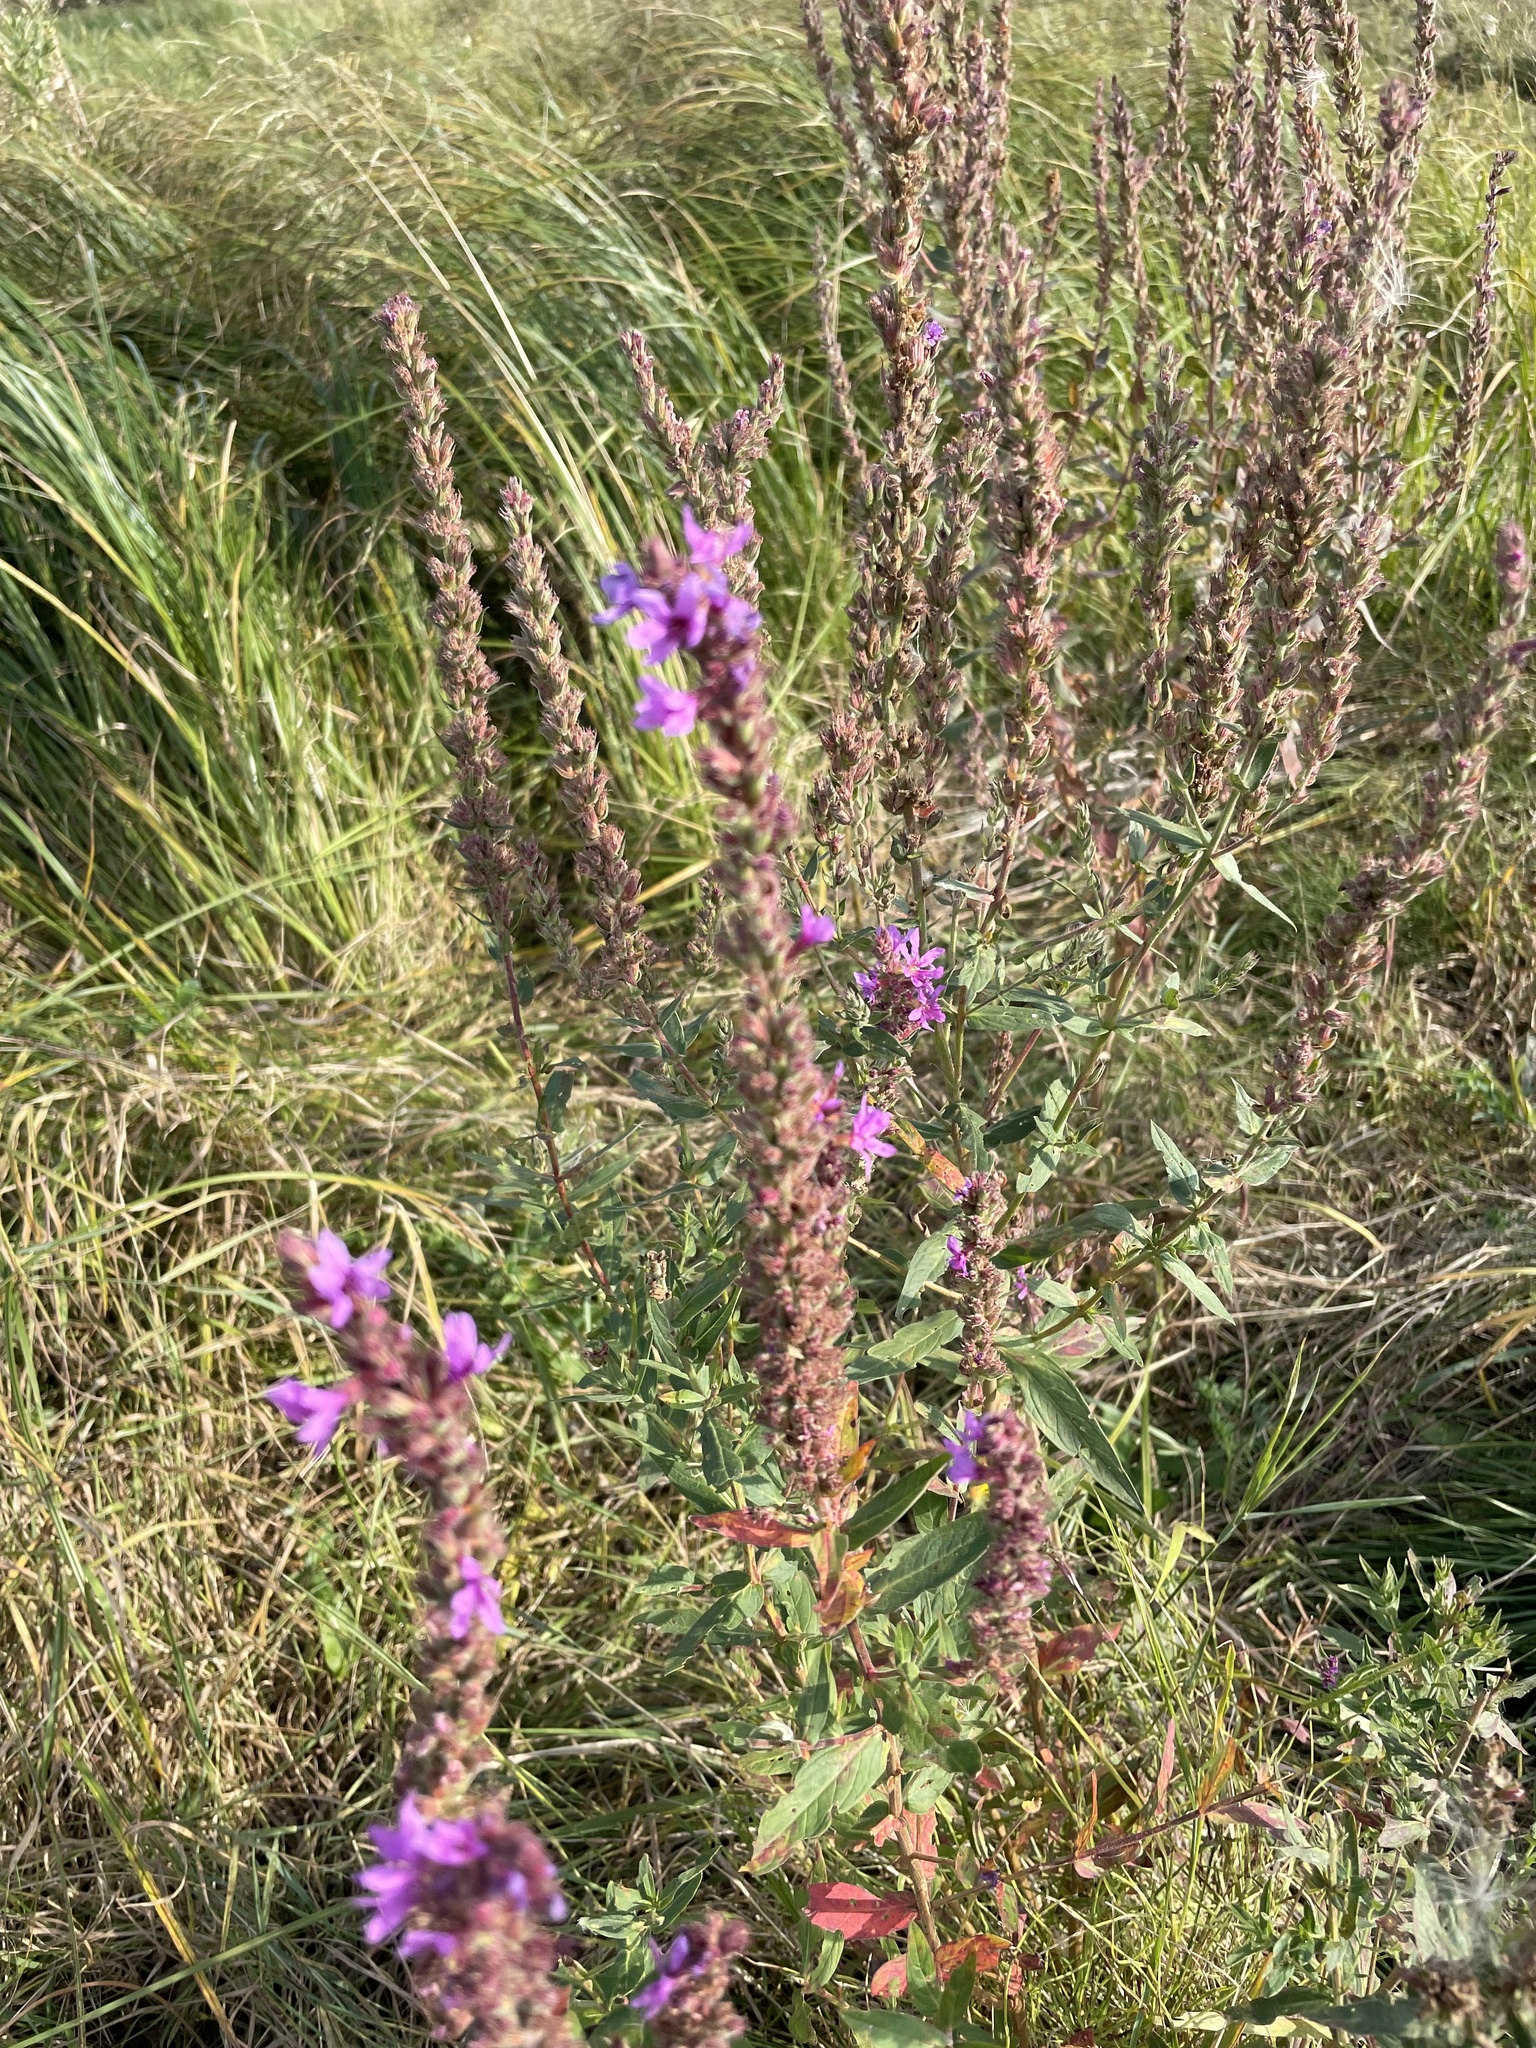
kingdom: Plantae
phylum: Tracheophyta
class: Magnoliopsida
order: Myrtales
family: Lythraceae
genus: Lythrum
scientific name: Lythrum salicaria
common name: Purple loosestrife
